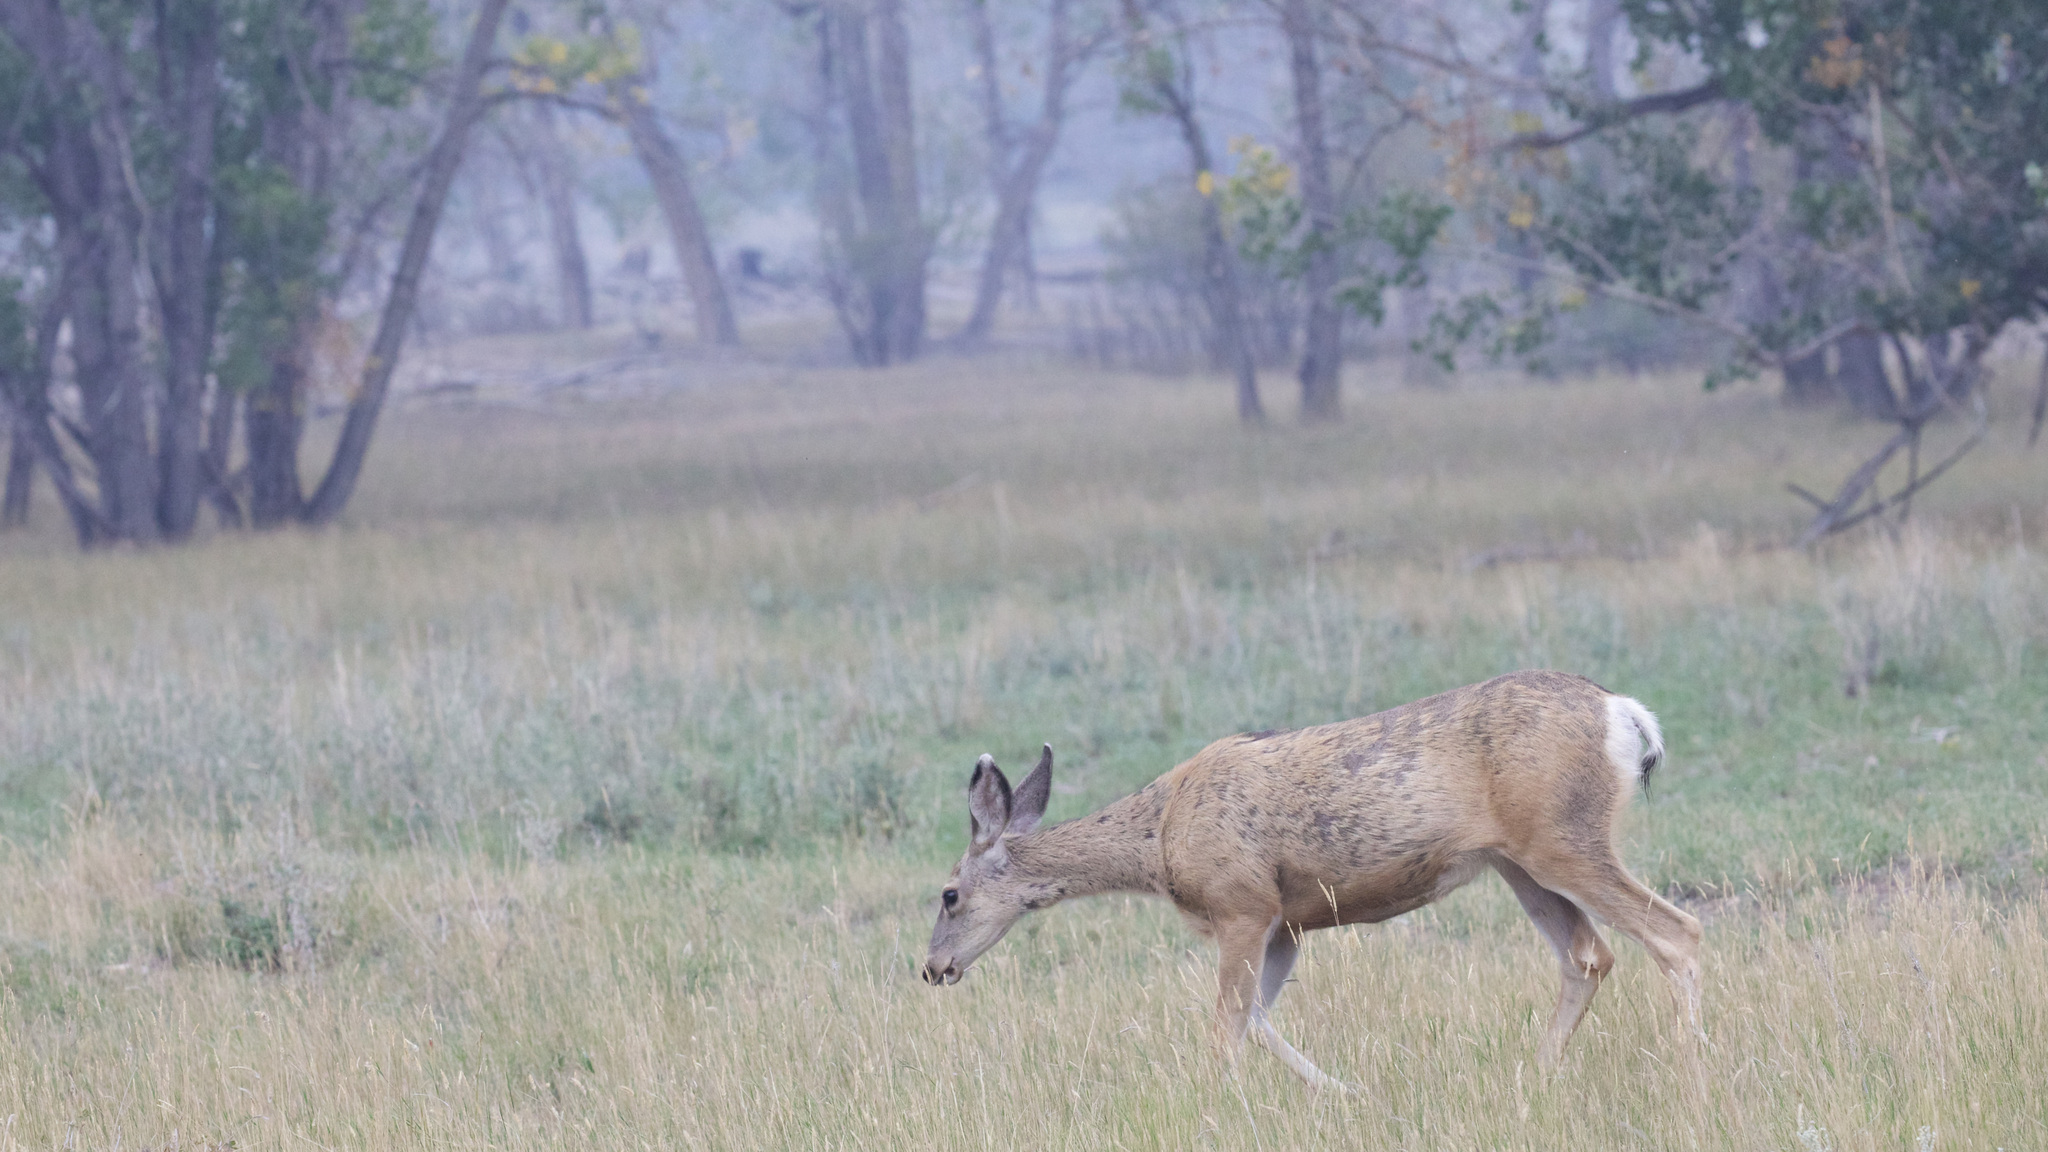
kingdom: Animalia
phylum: Chordata
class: Mammalia
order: Artiodactyla
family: Cervidae
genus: Odocoileus
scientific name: Odocoileus hemionus
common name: Mule deer
